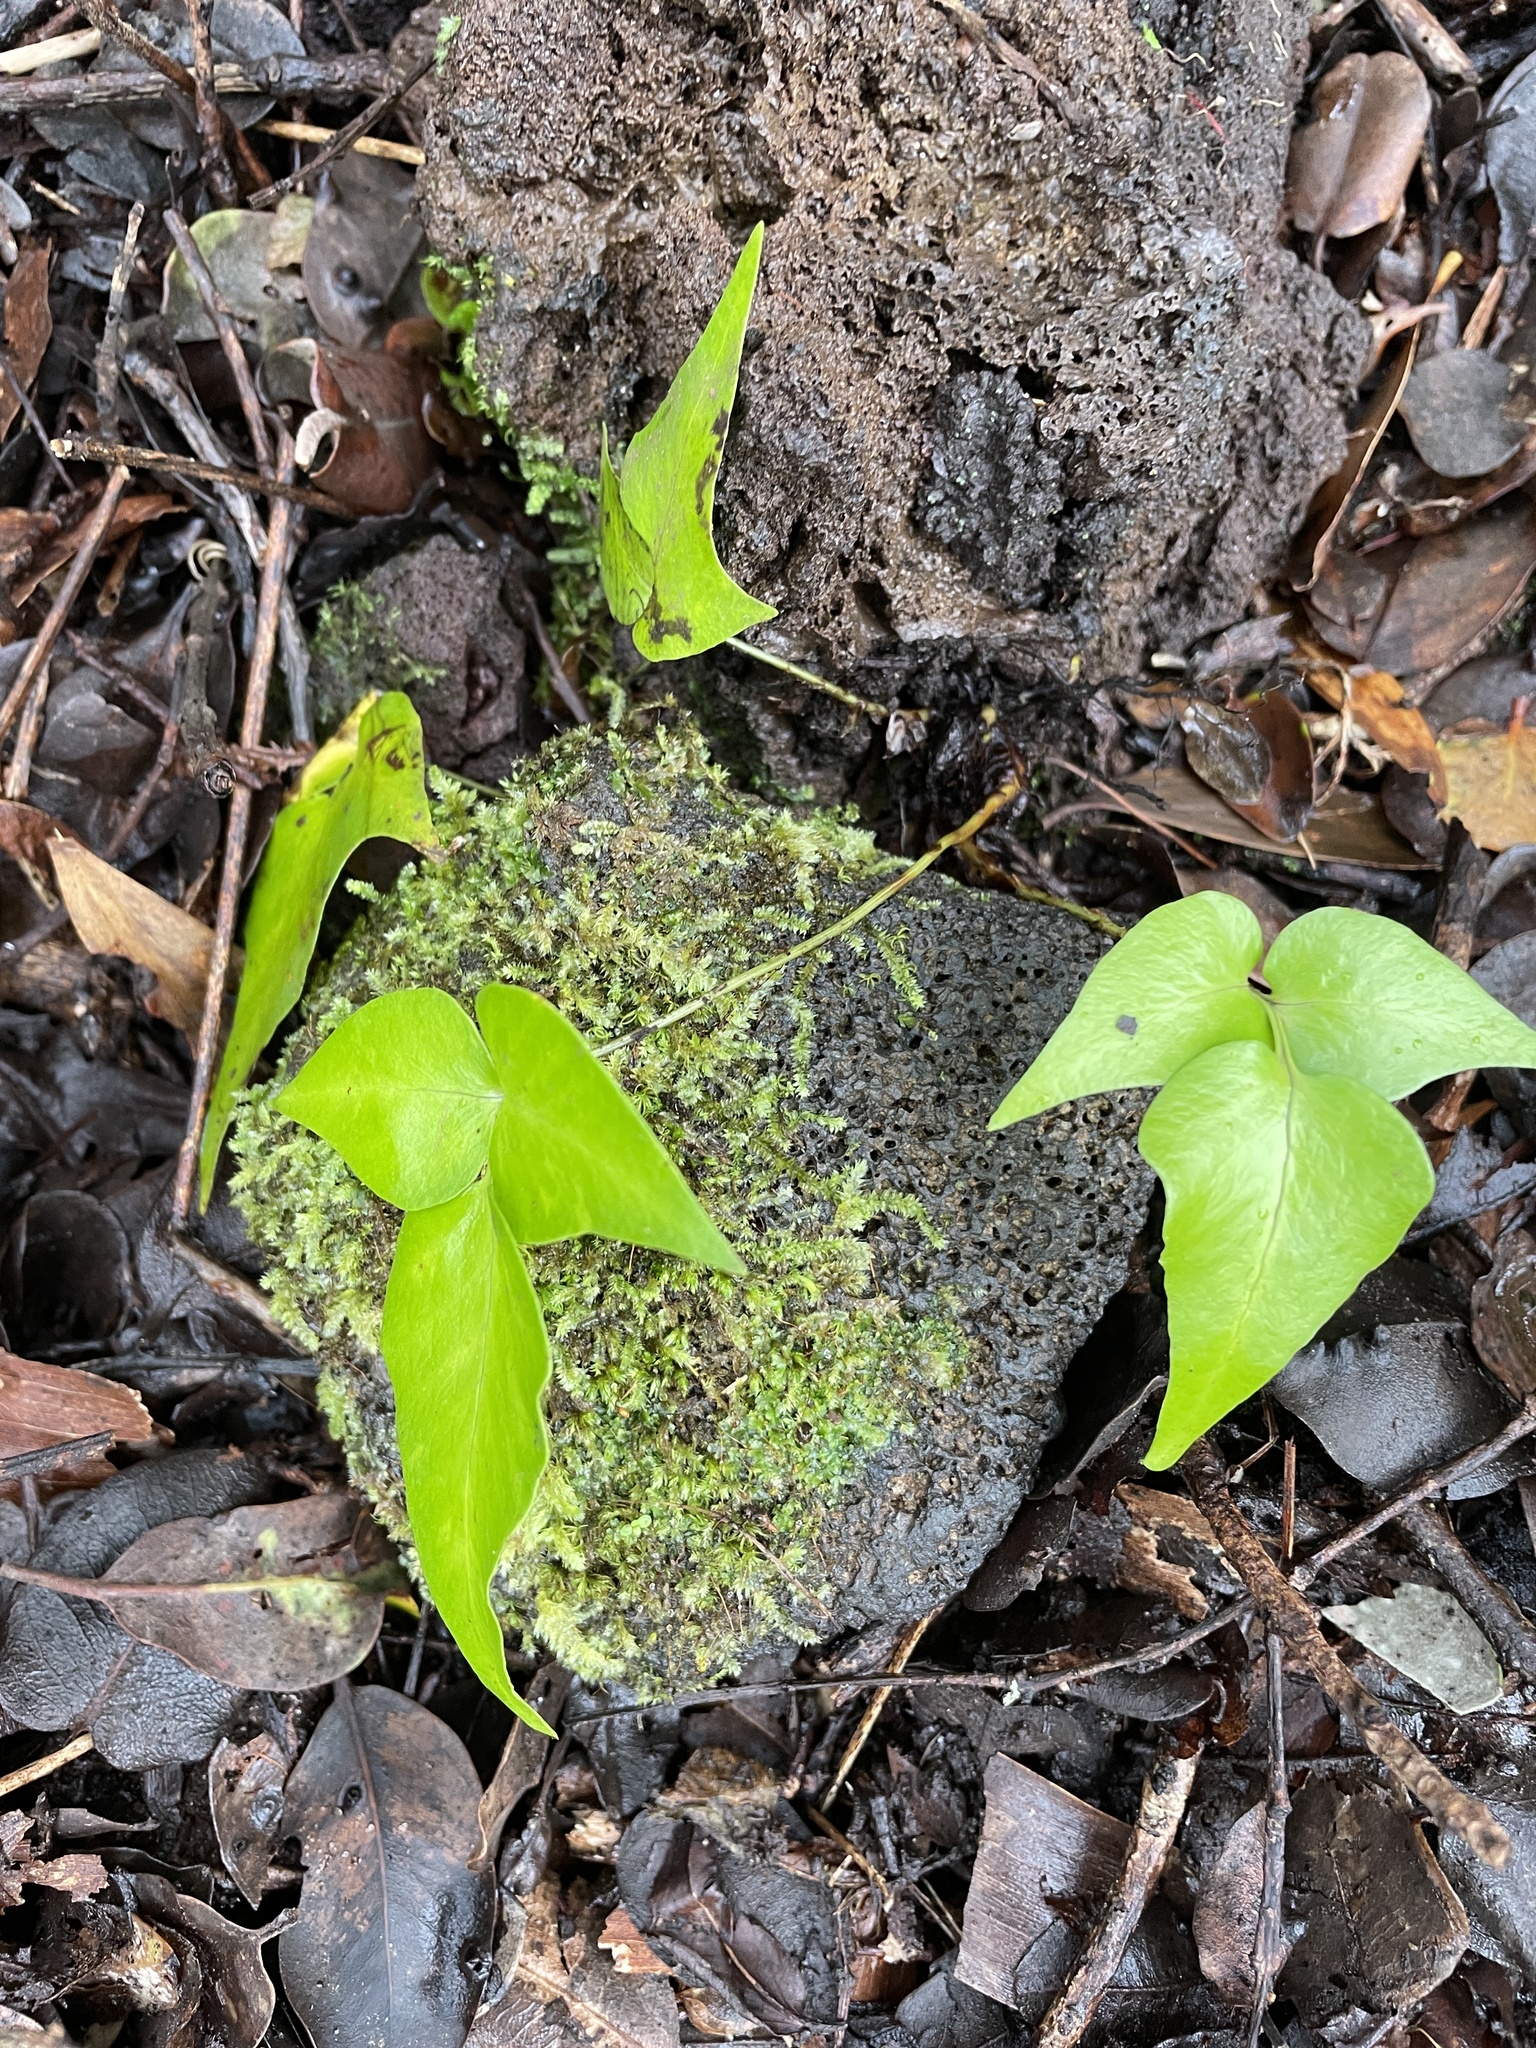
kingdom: Plantae
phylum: Tracheophyta
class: Polypodiopsida
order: Polypodiales
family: Dryopteridaceae
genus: Cyrtomium
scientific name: Cyrtomium falcatum
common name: House holly-fern
